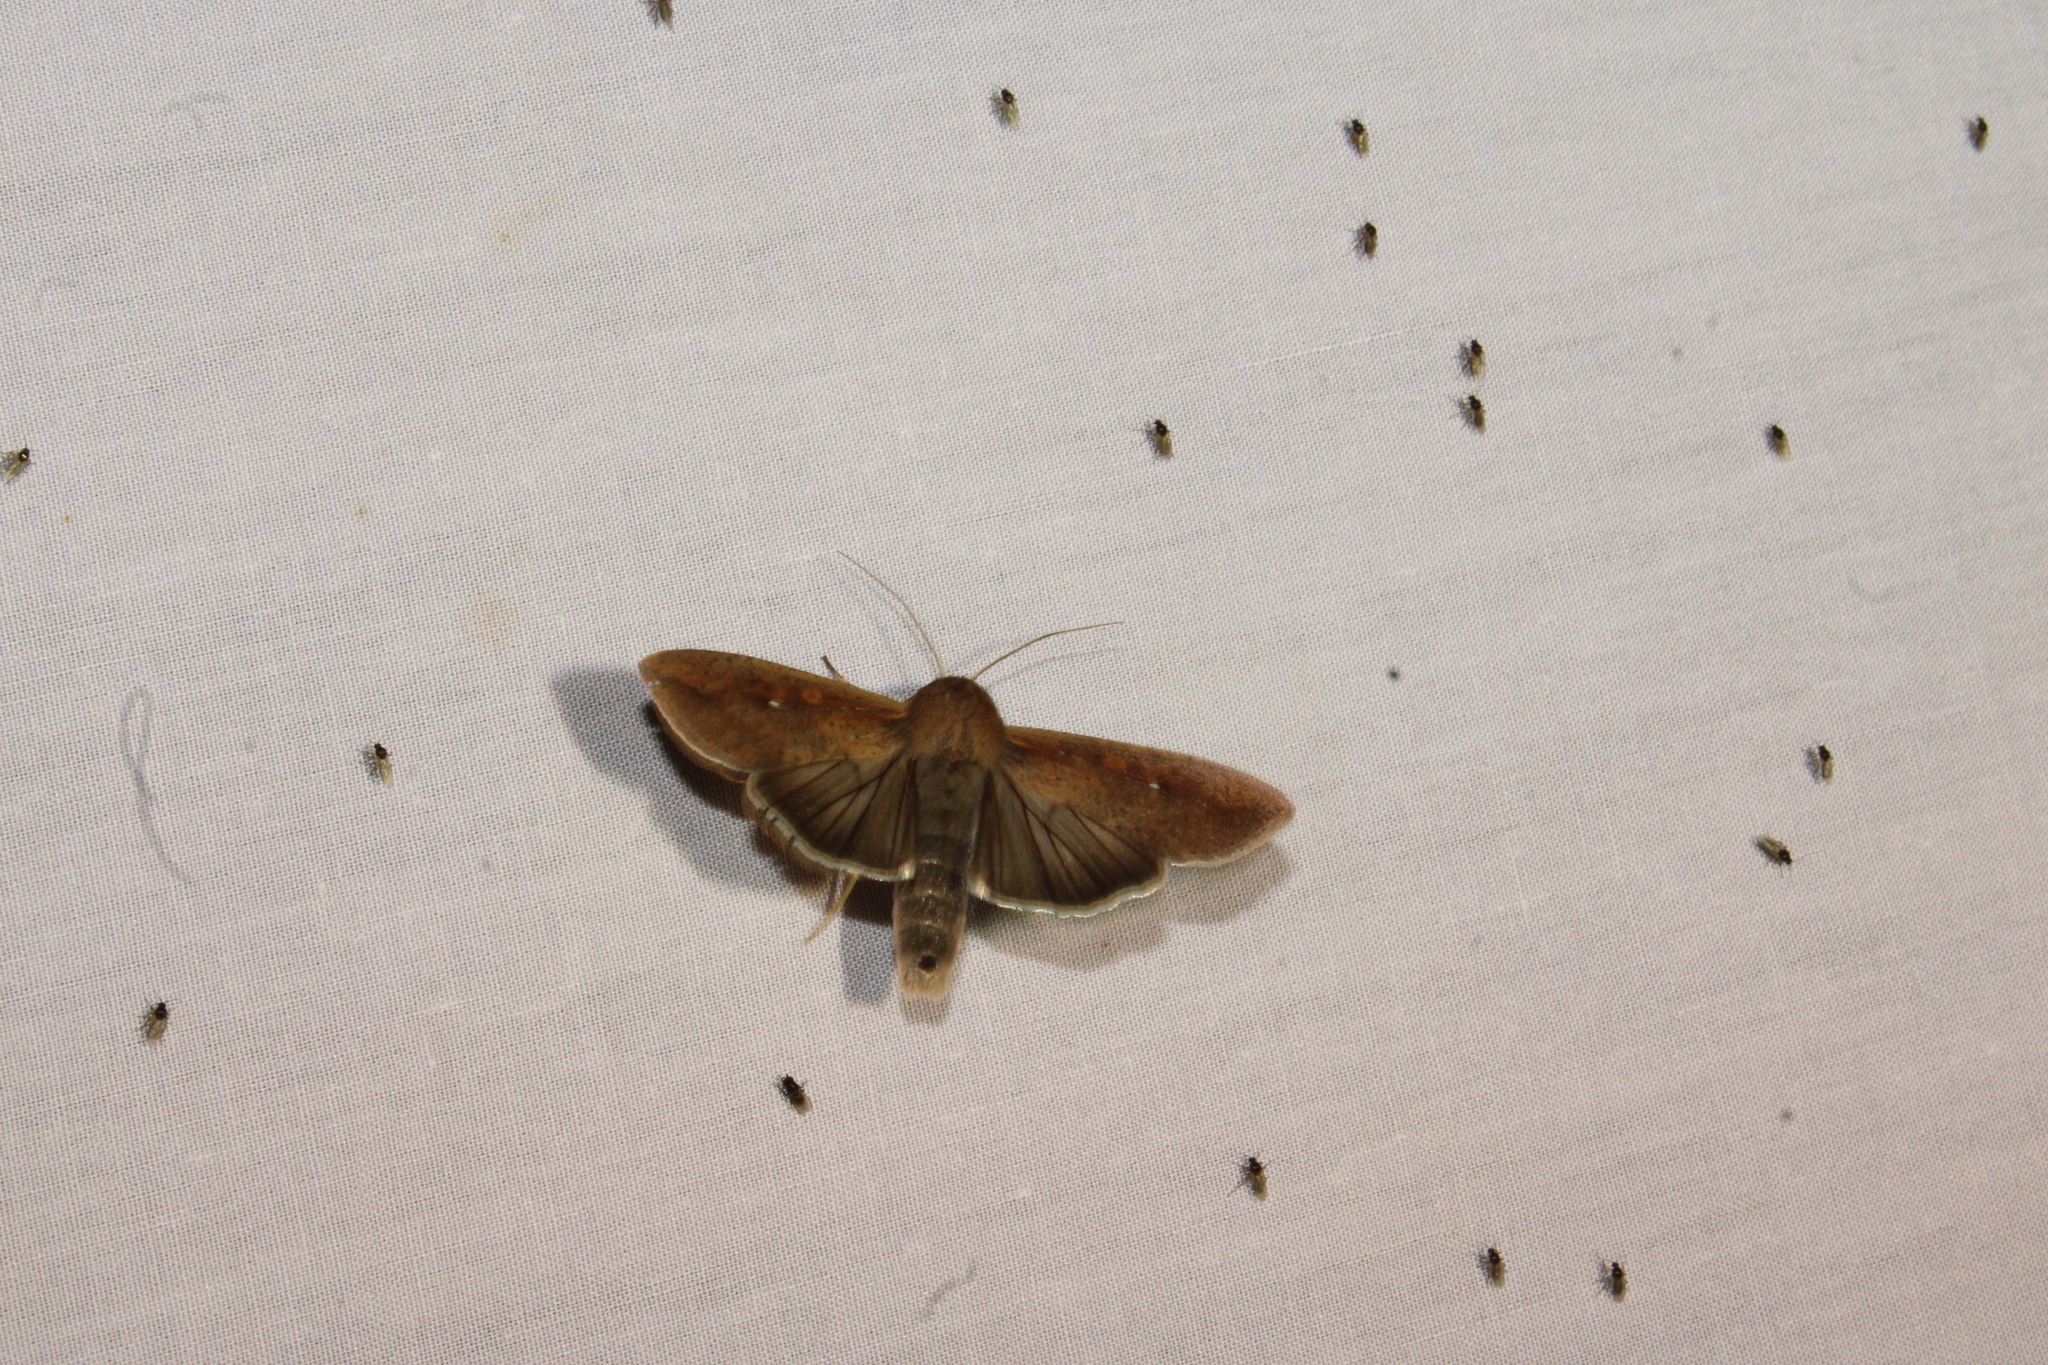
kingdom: Animalia
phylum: Arthropoda
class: Insecta
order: Lepidoptera
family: Noctuidae
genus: Mythimna
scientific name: Mythimna unipuncta
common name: White-speck
